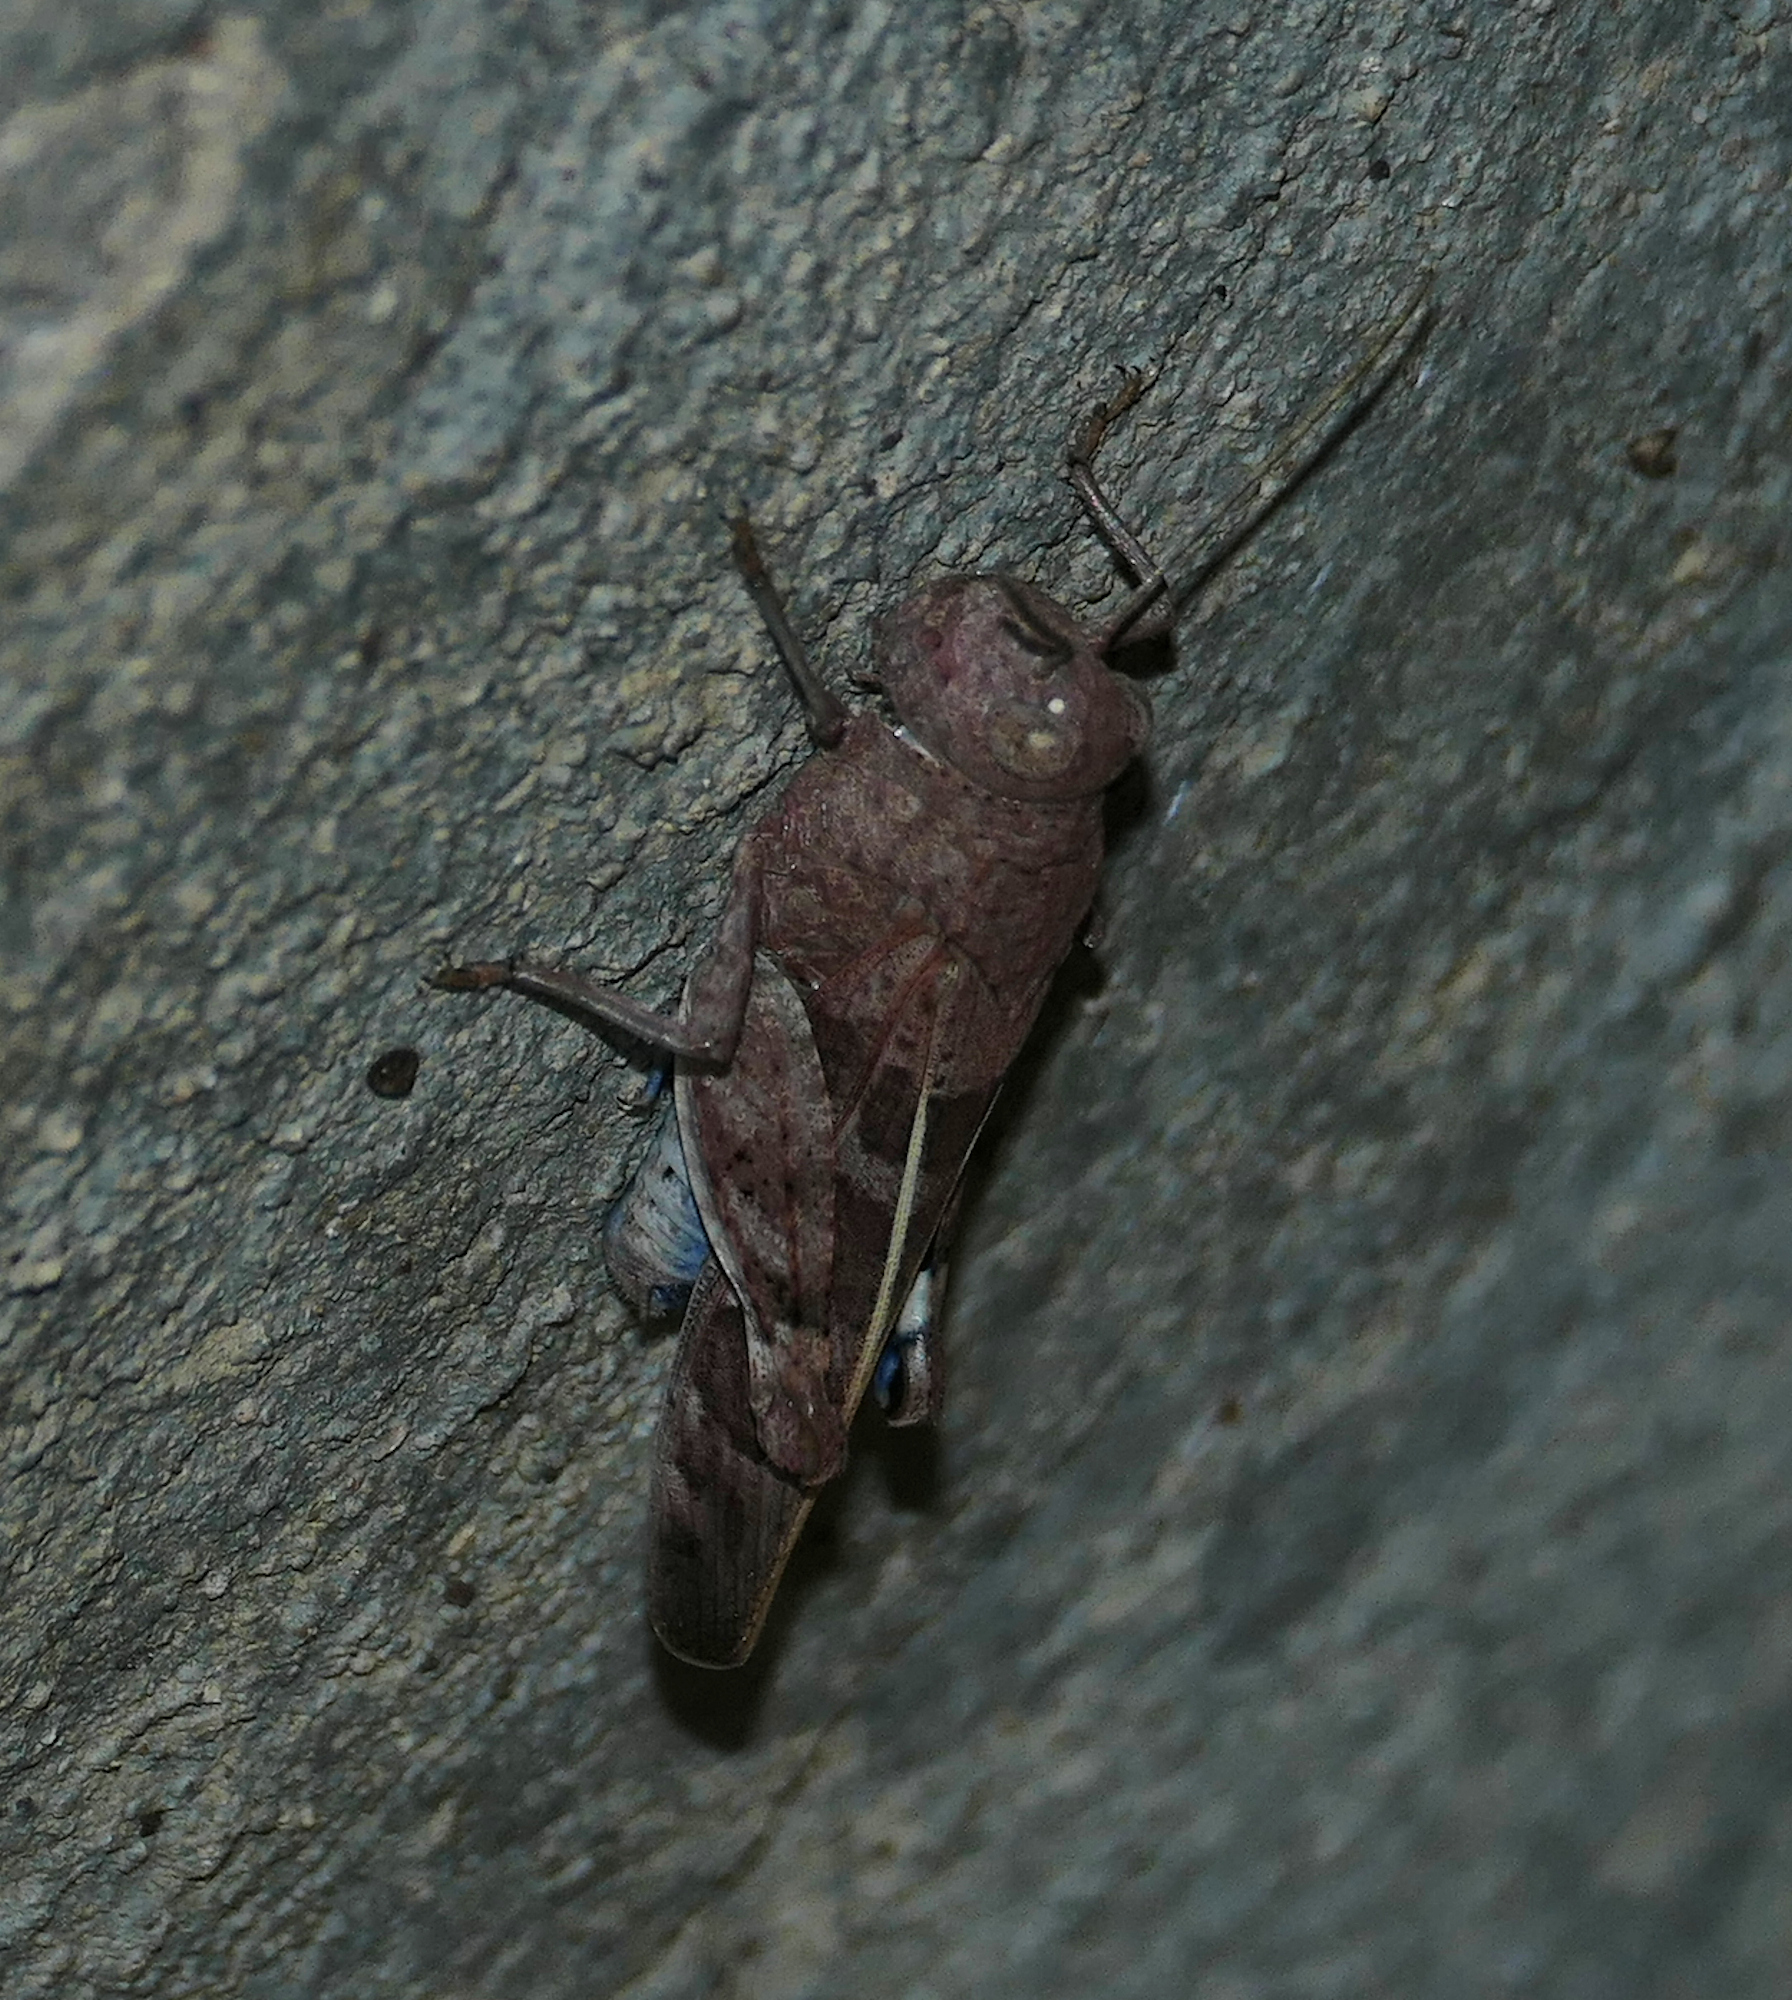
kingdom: Animalia
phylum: Arthropoda
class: Insecta
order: Orthoptera
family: Acrididae
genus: Leprus
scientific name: Leprus intermedius
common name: Saussure's blue-winged grasshopper
